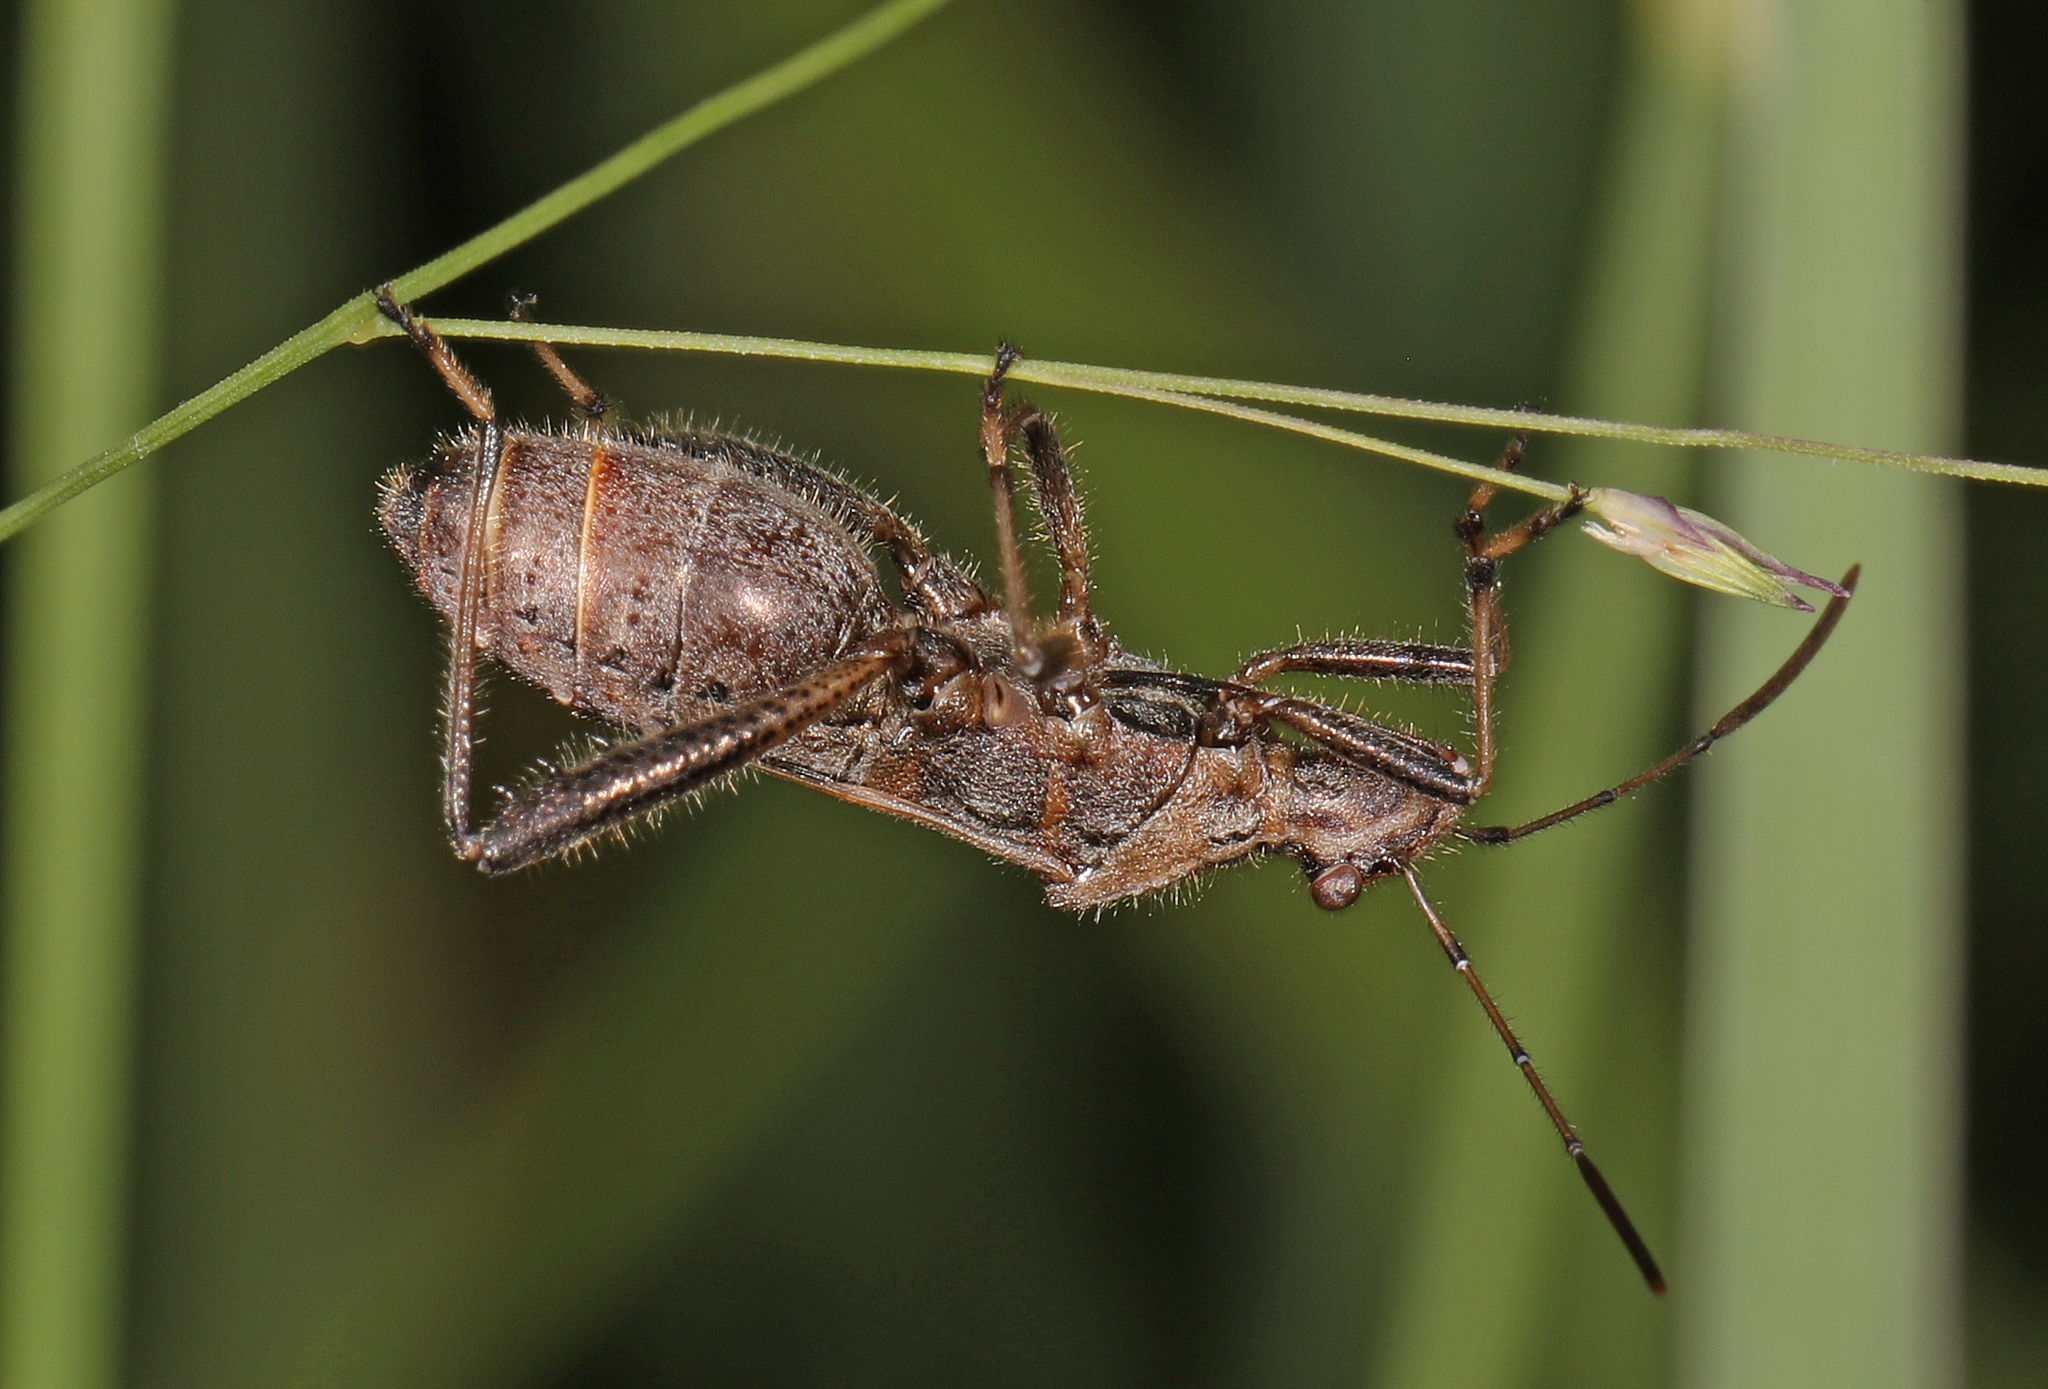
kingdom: Animalia
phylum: Arthropoda
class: Insecta
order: Hemiptera
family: Alydidae
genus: Alydus
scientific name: Alydus pilosulus
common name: Broad-headed bug
